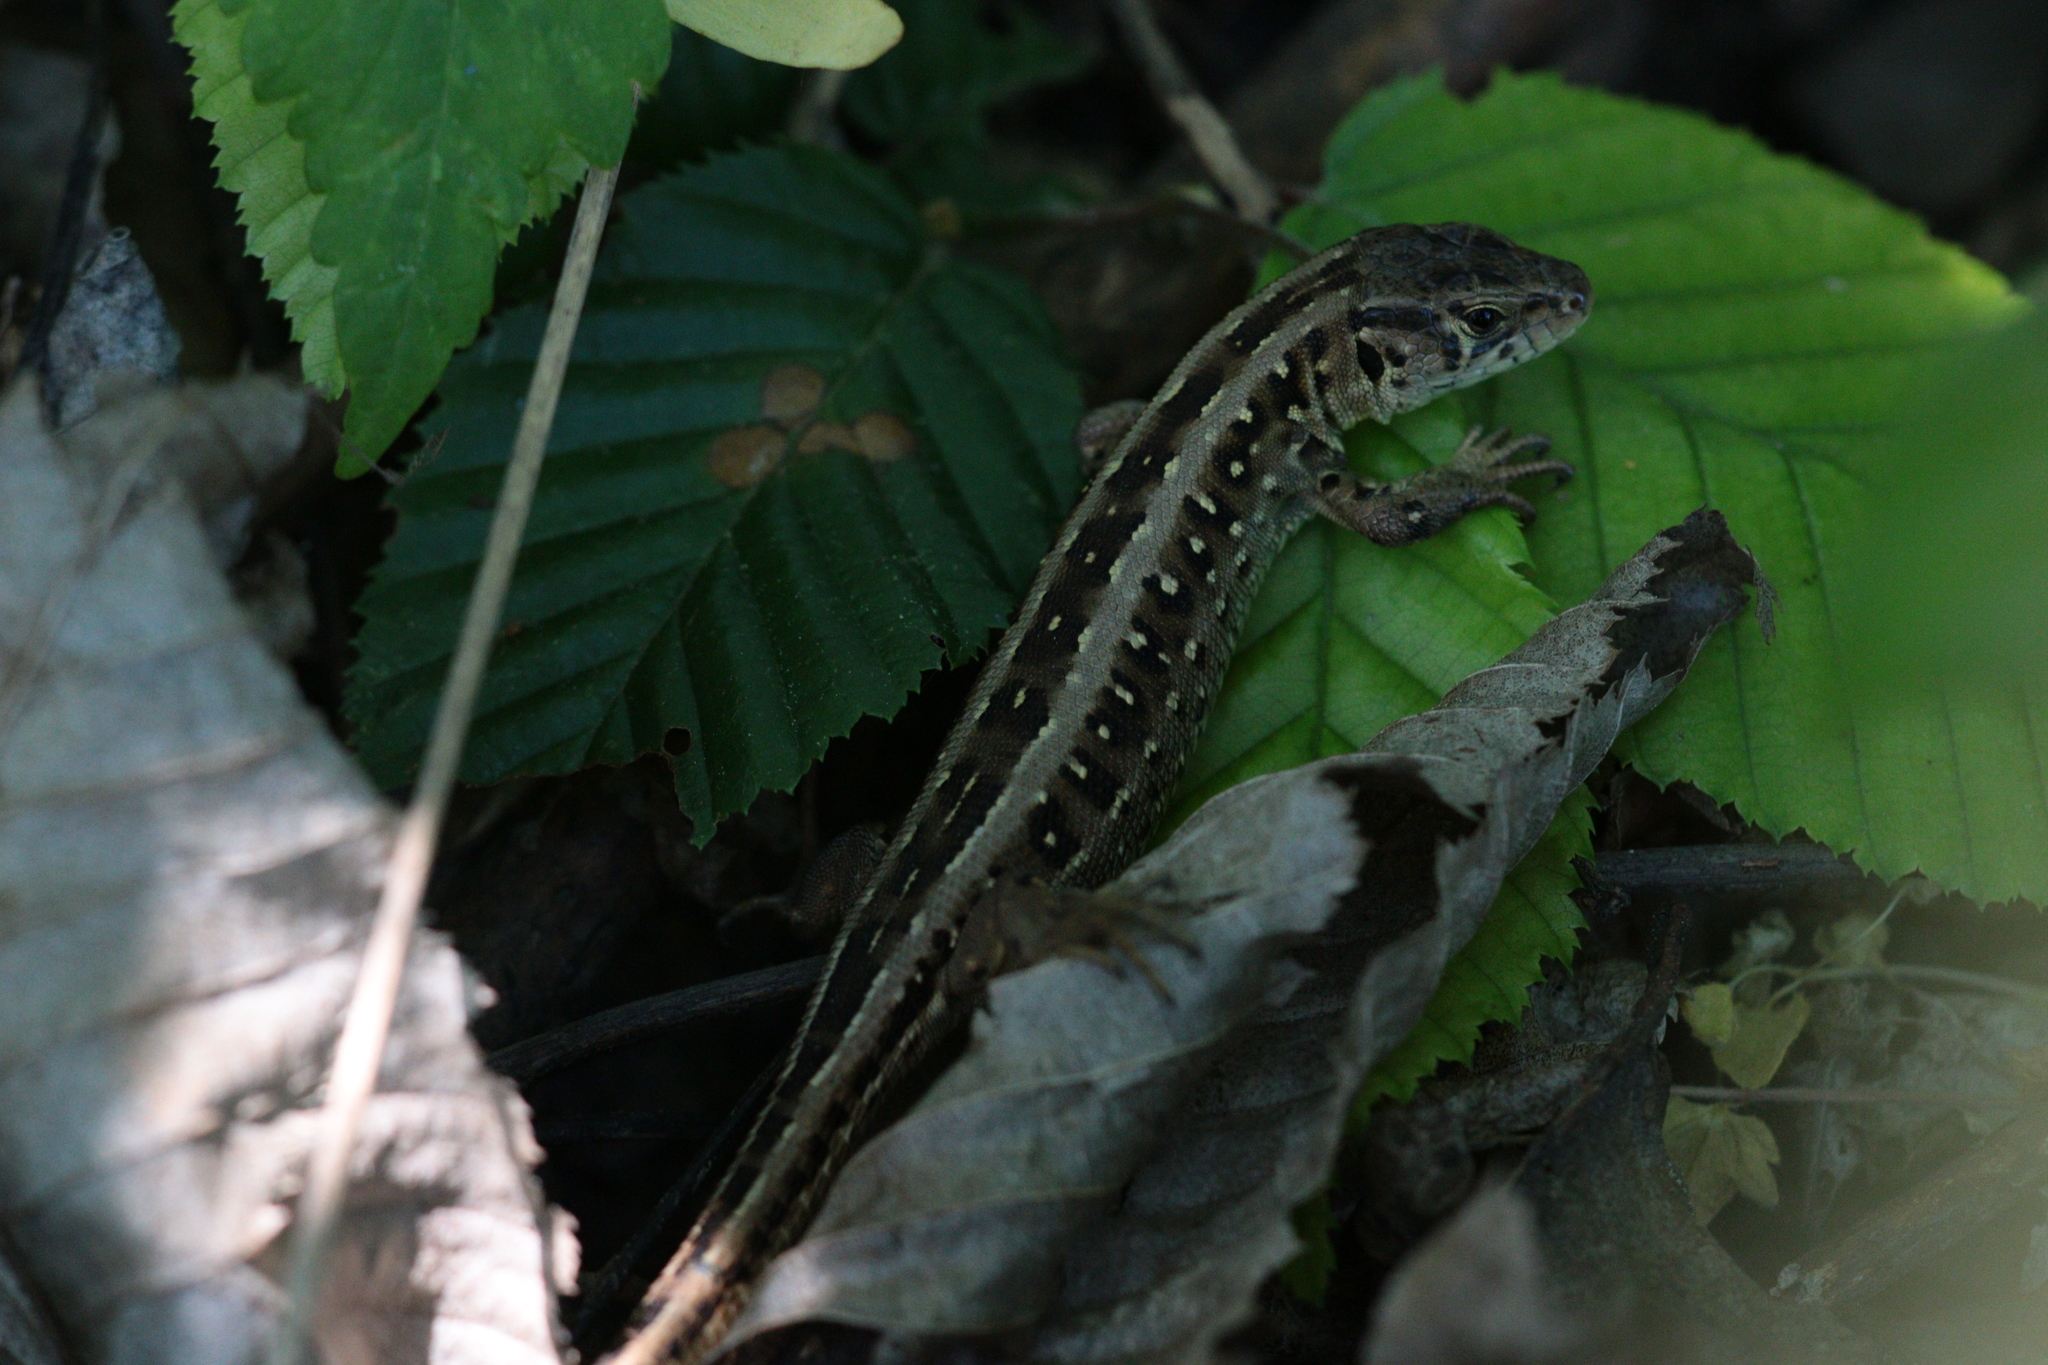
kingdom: Animalia
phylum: Chordata
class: Squamata
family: Lacertidae
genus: Lacerta
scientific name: Lacerta agilis
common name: Sand lizard
